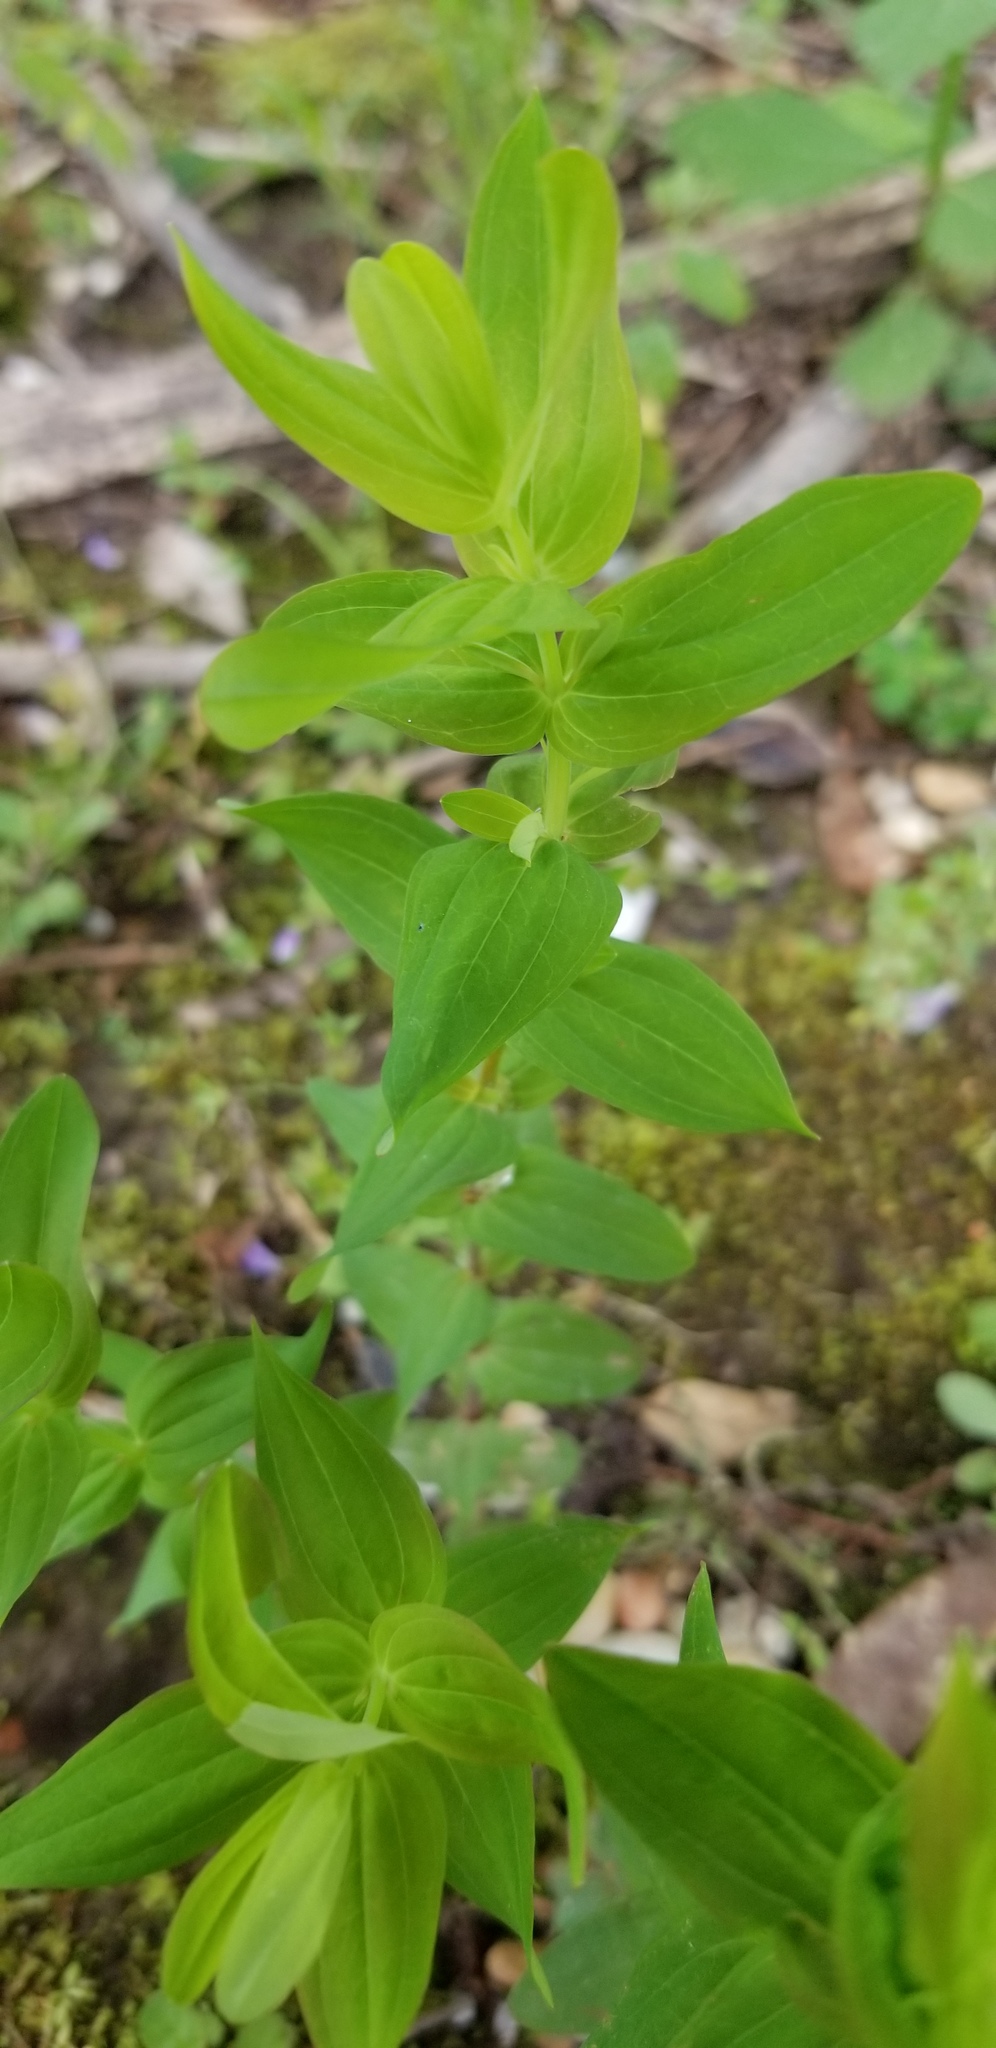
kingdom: Plantae
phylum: Tracheophyta
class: Magnoliopsida
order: Malpighiales
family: Hypericaceae
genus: Hypericum
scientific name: Hypericum mutilum
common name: Dwarf st. john's-wort
